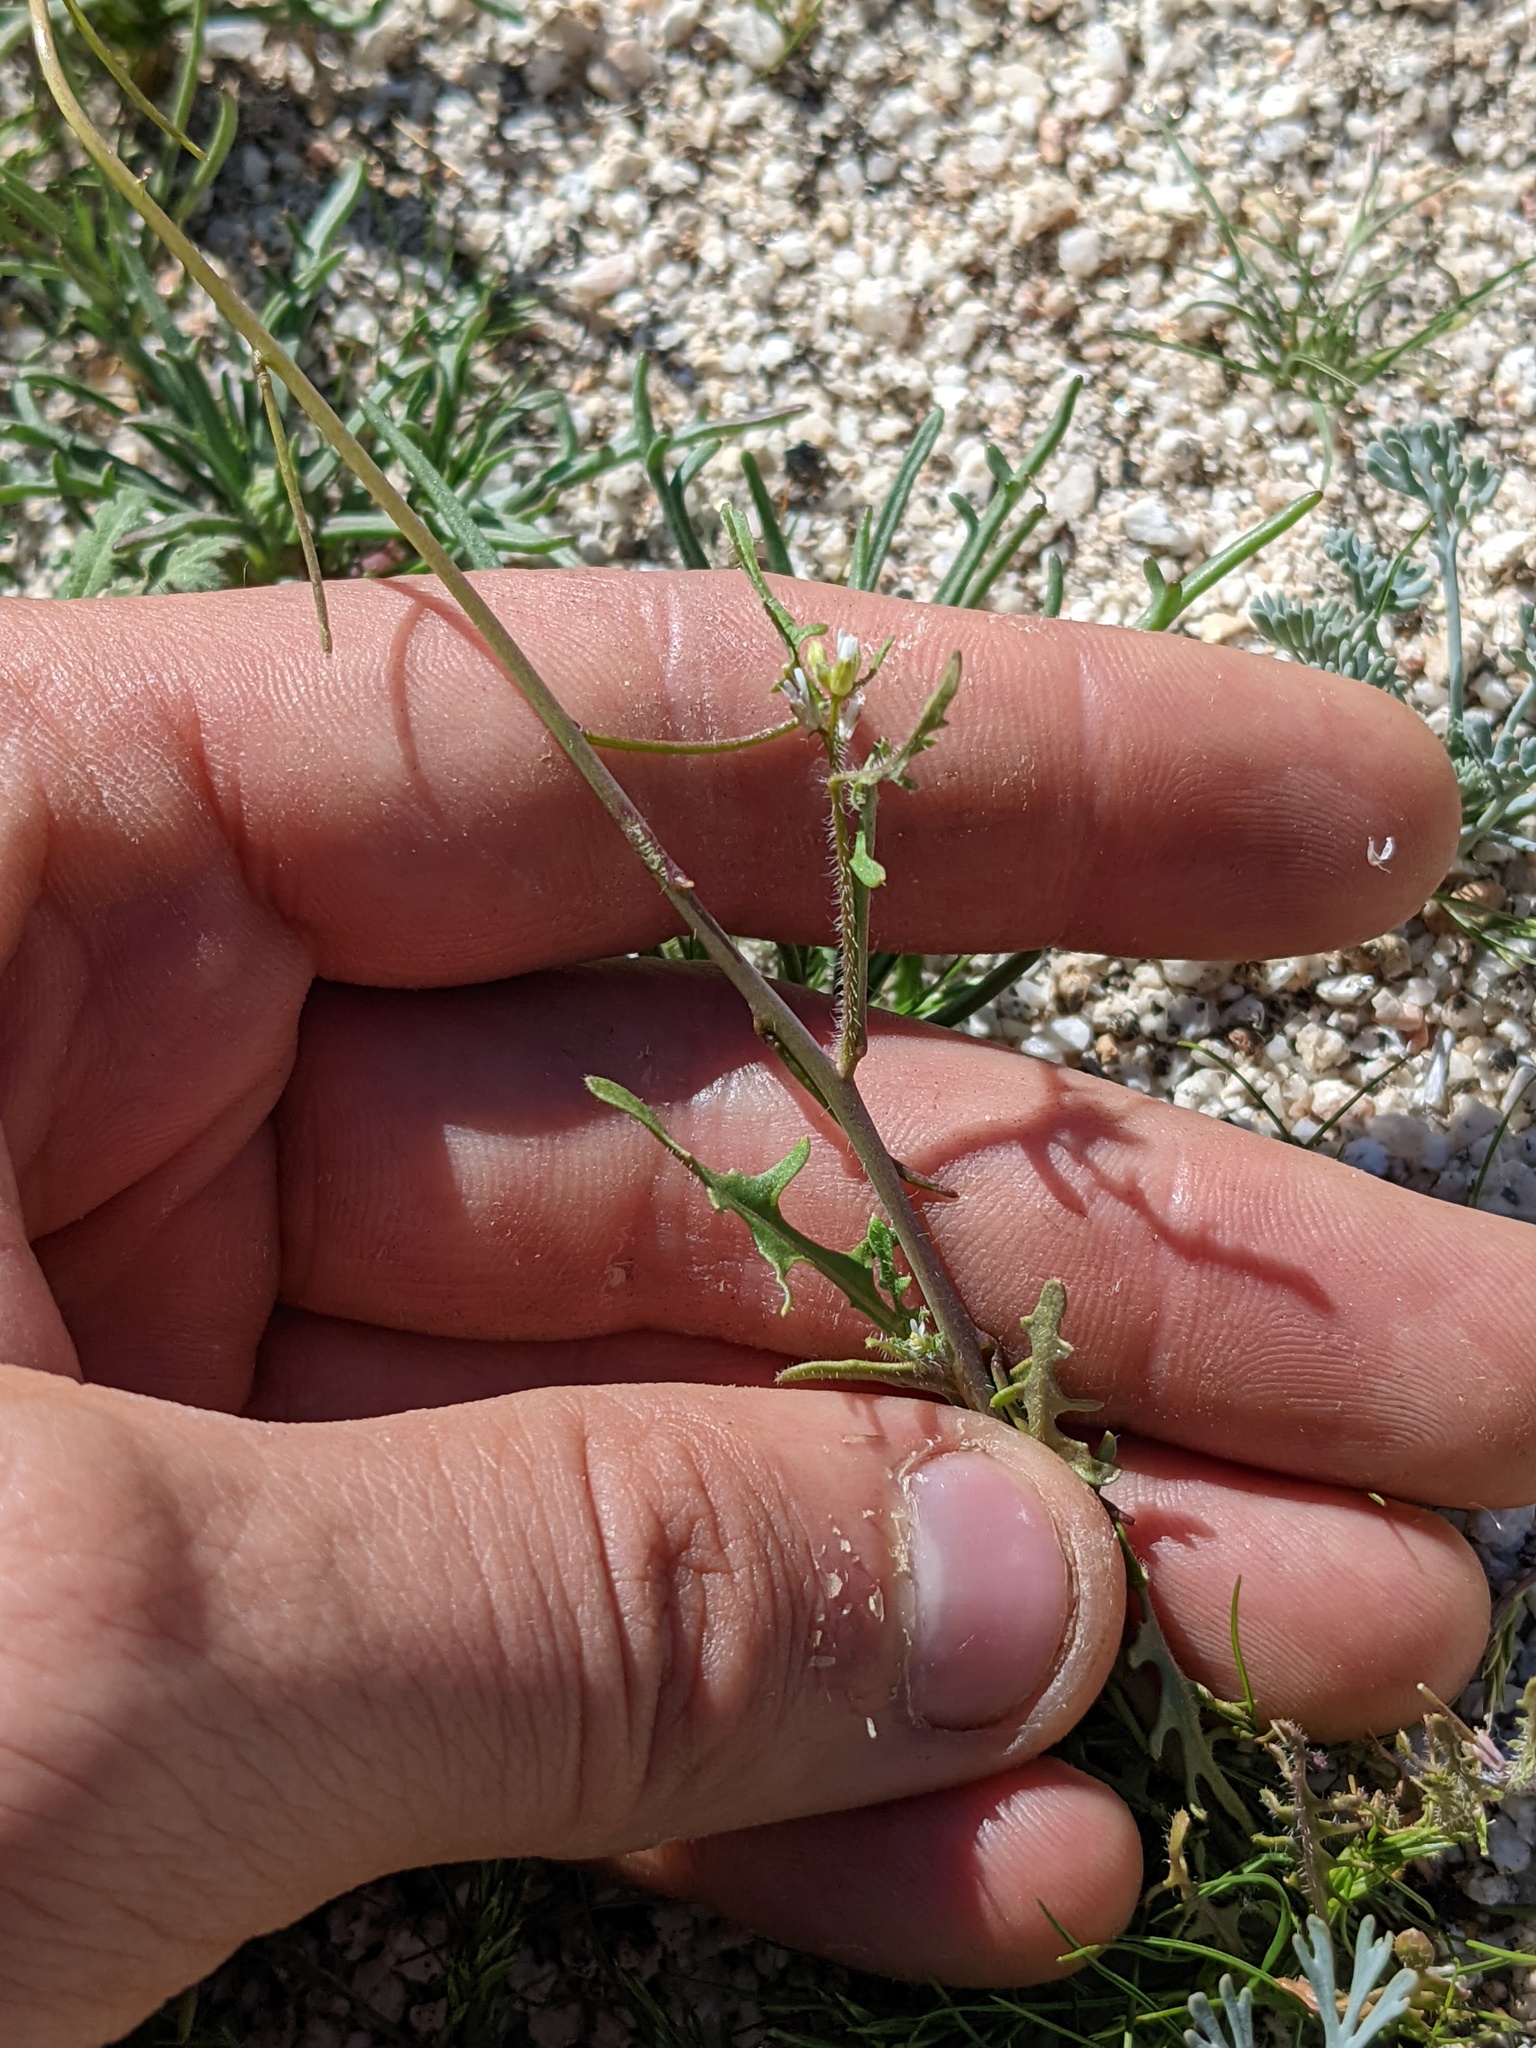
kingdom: Plantae
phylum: Tracheophyta
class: Magnoliopsida
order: Brassicales
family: Brassicaceae
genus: Streptanthus
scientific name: Streptanthus lasiophyllus
